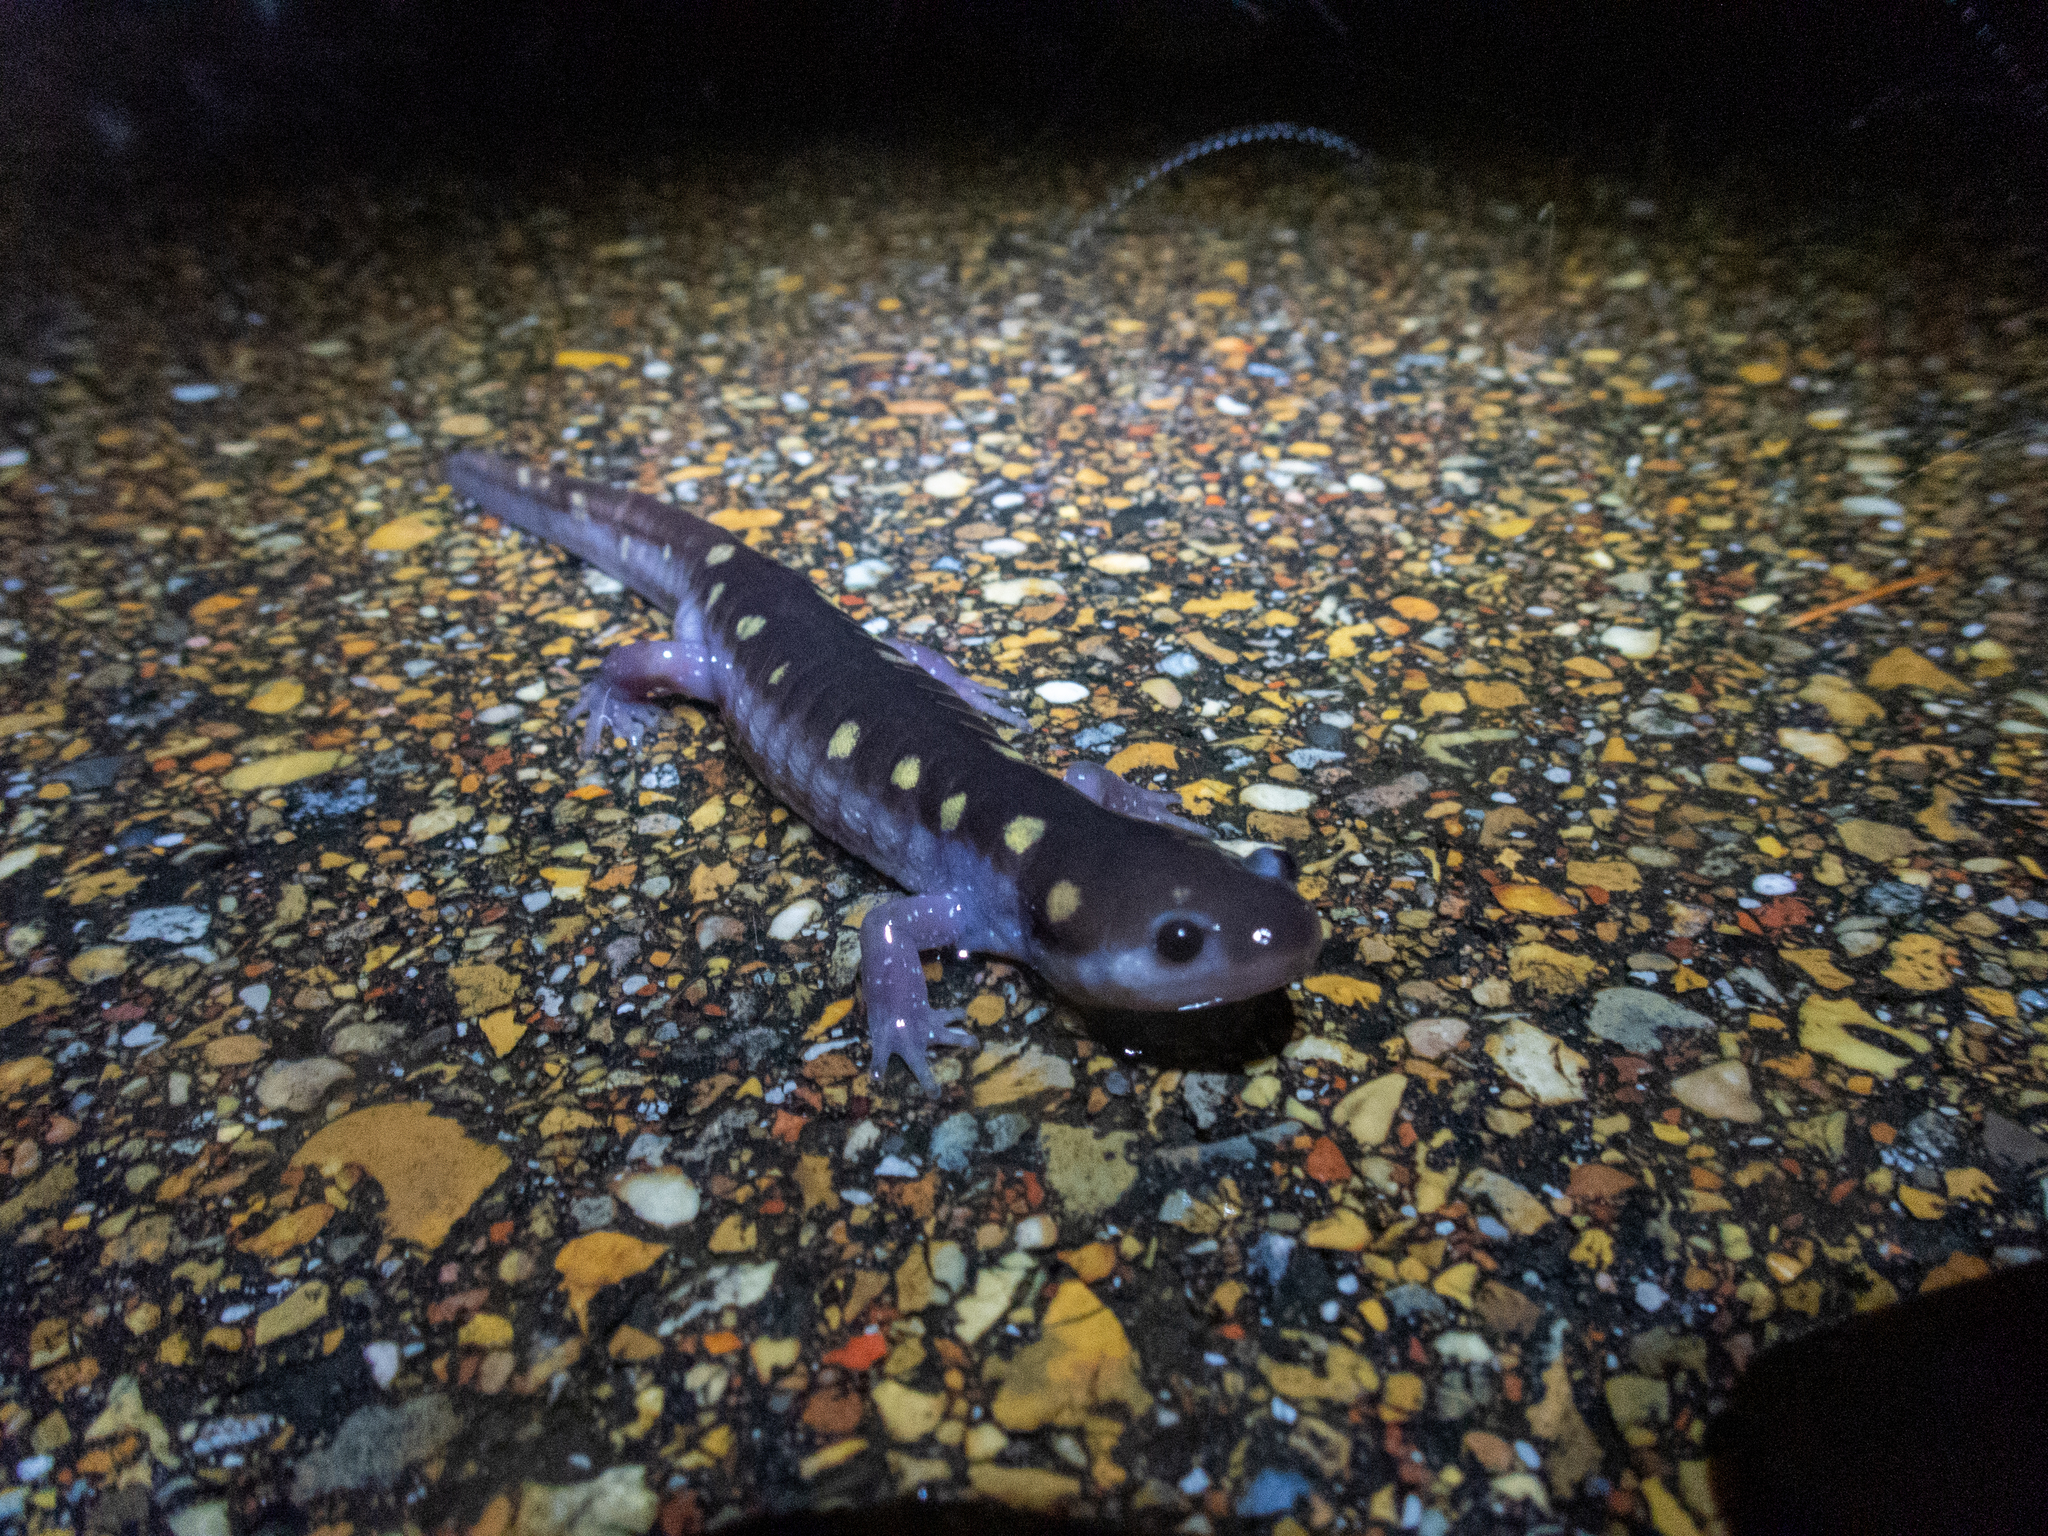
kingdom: Animalia
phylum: Chordata
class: Amphibia
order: Caudata
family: Ambystomatidae
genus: Ambystoma
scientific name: Ambystoma maculatum
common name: Spotted salamander
